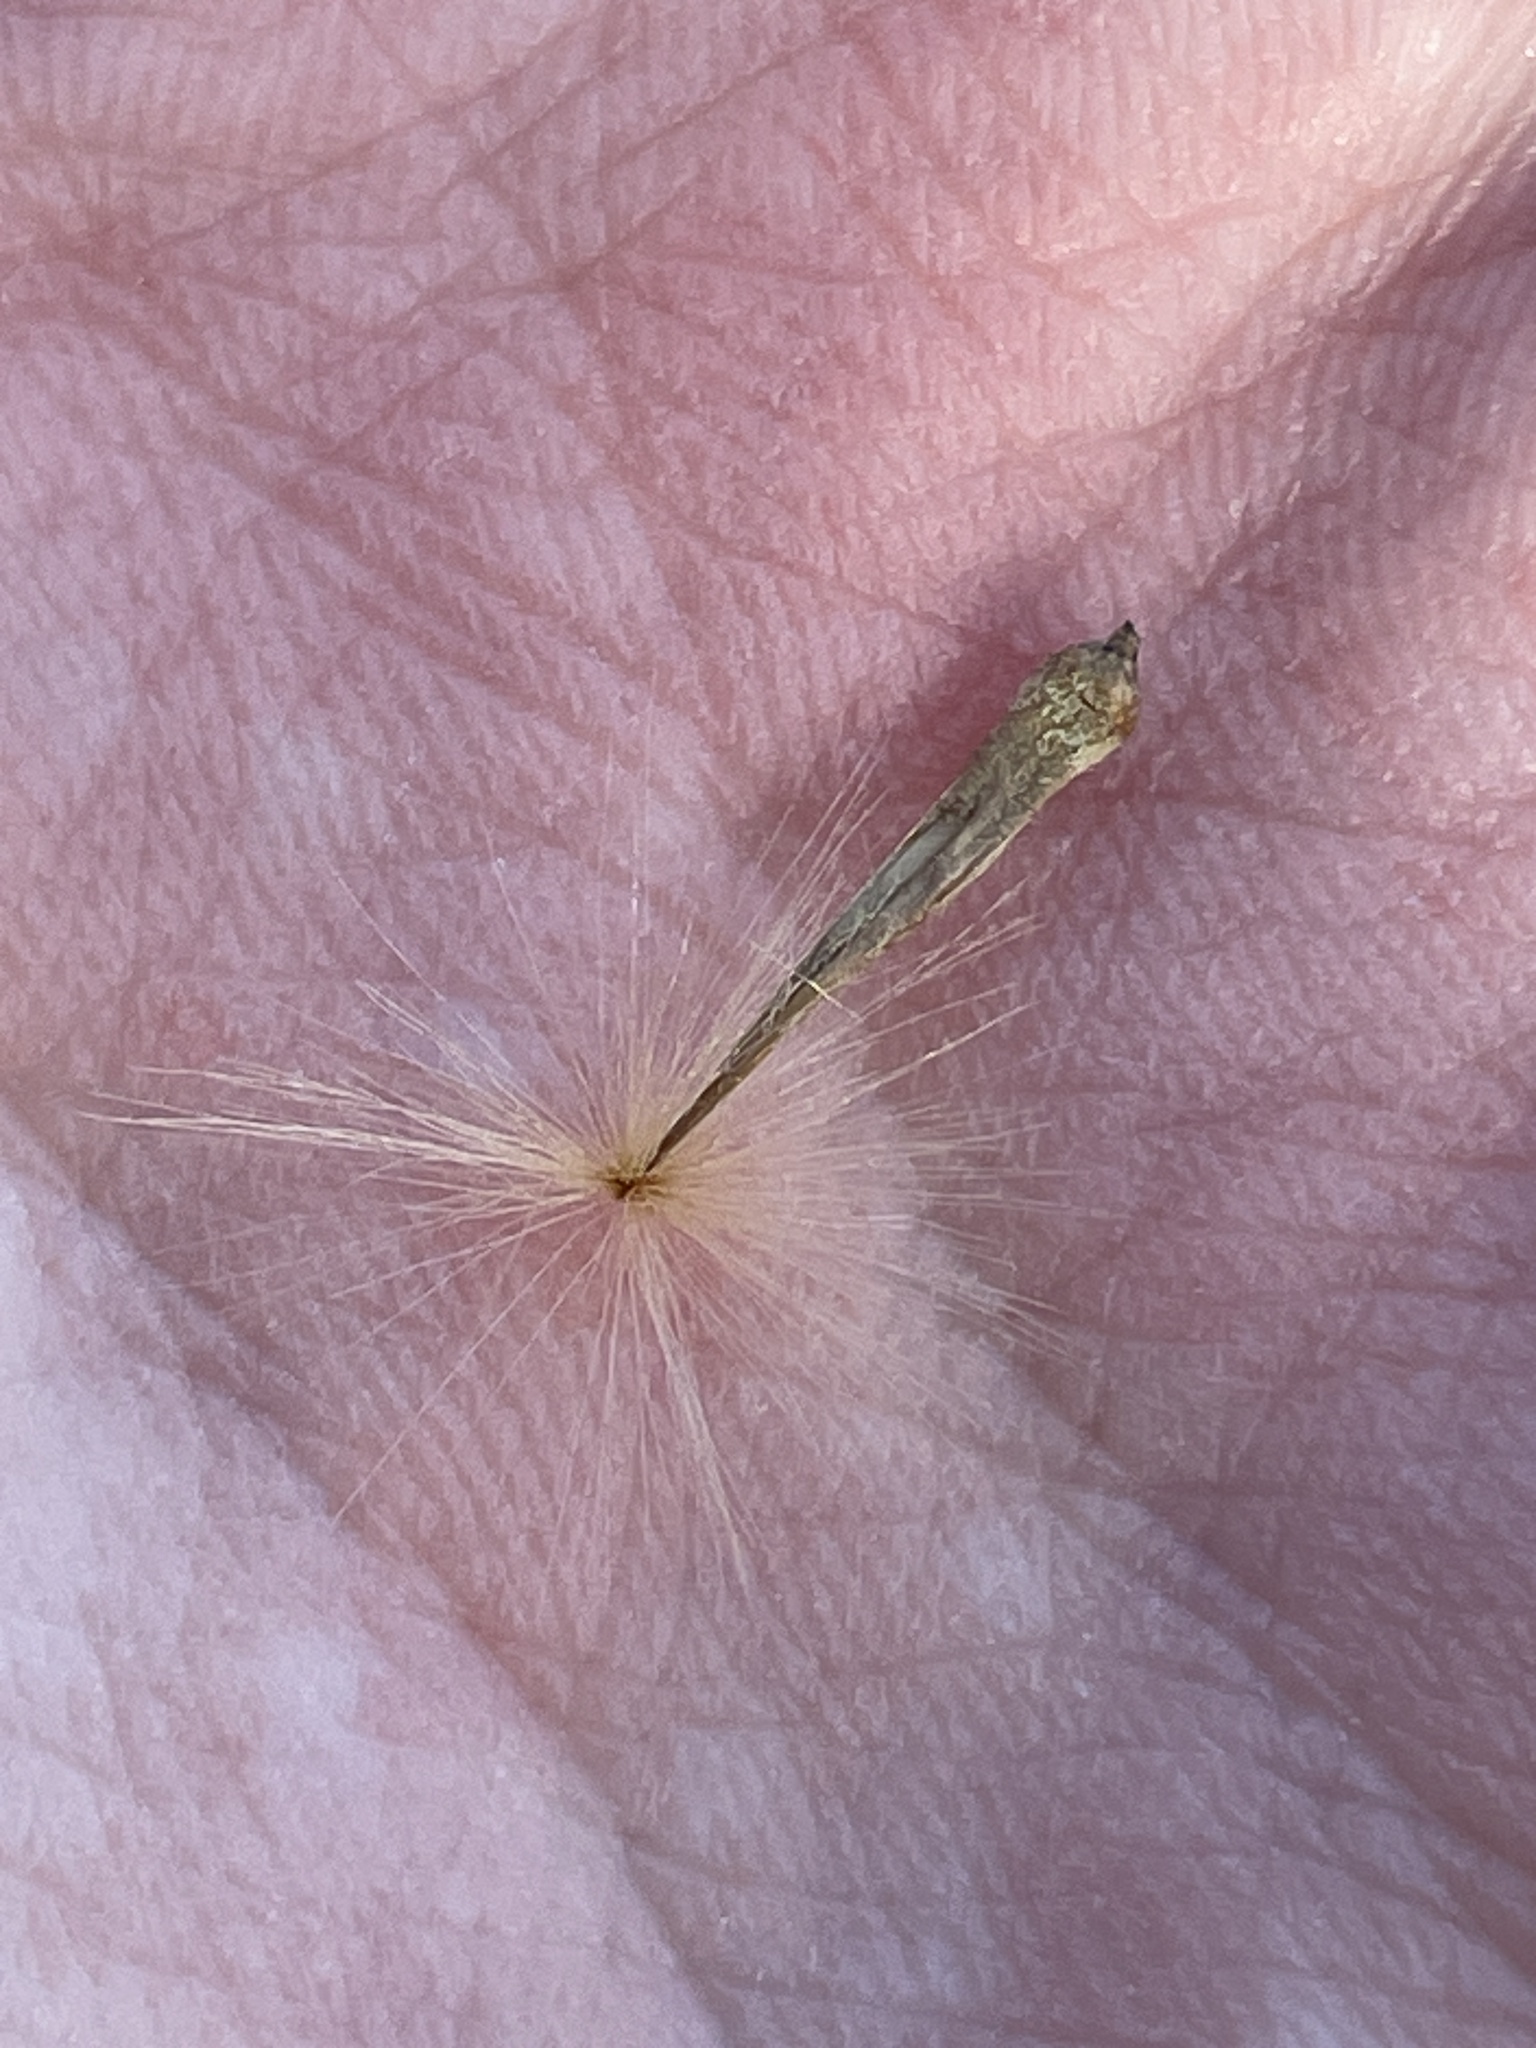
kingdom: Plantae
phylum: Tracheophyta
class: Magnoliopsida
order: Proteales
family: Platanaceae
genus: Platanus
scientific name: Platanus occidentalis
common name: American sycamore
